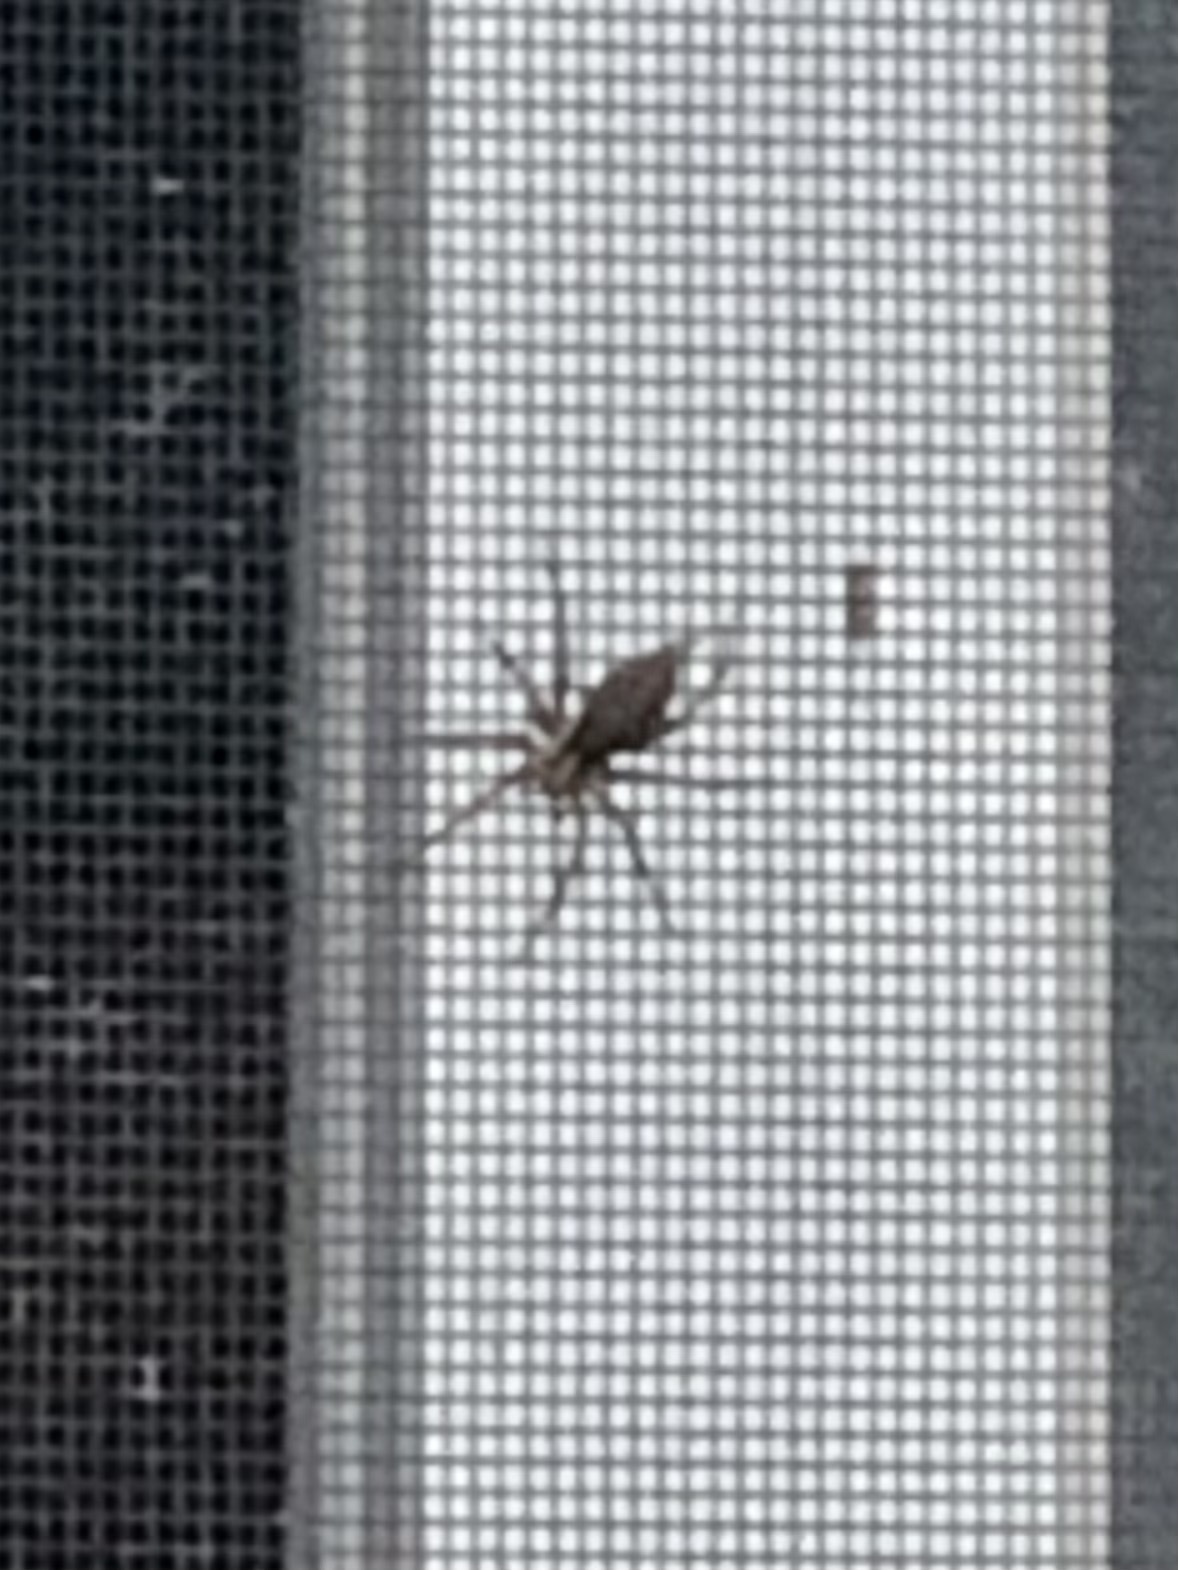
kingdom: Animalia
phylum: Arthropoda
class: Arachnida
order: Araneae
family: Agelenidae
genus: Agelenopsis
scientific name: Agelenopsis
